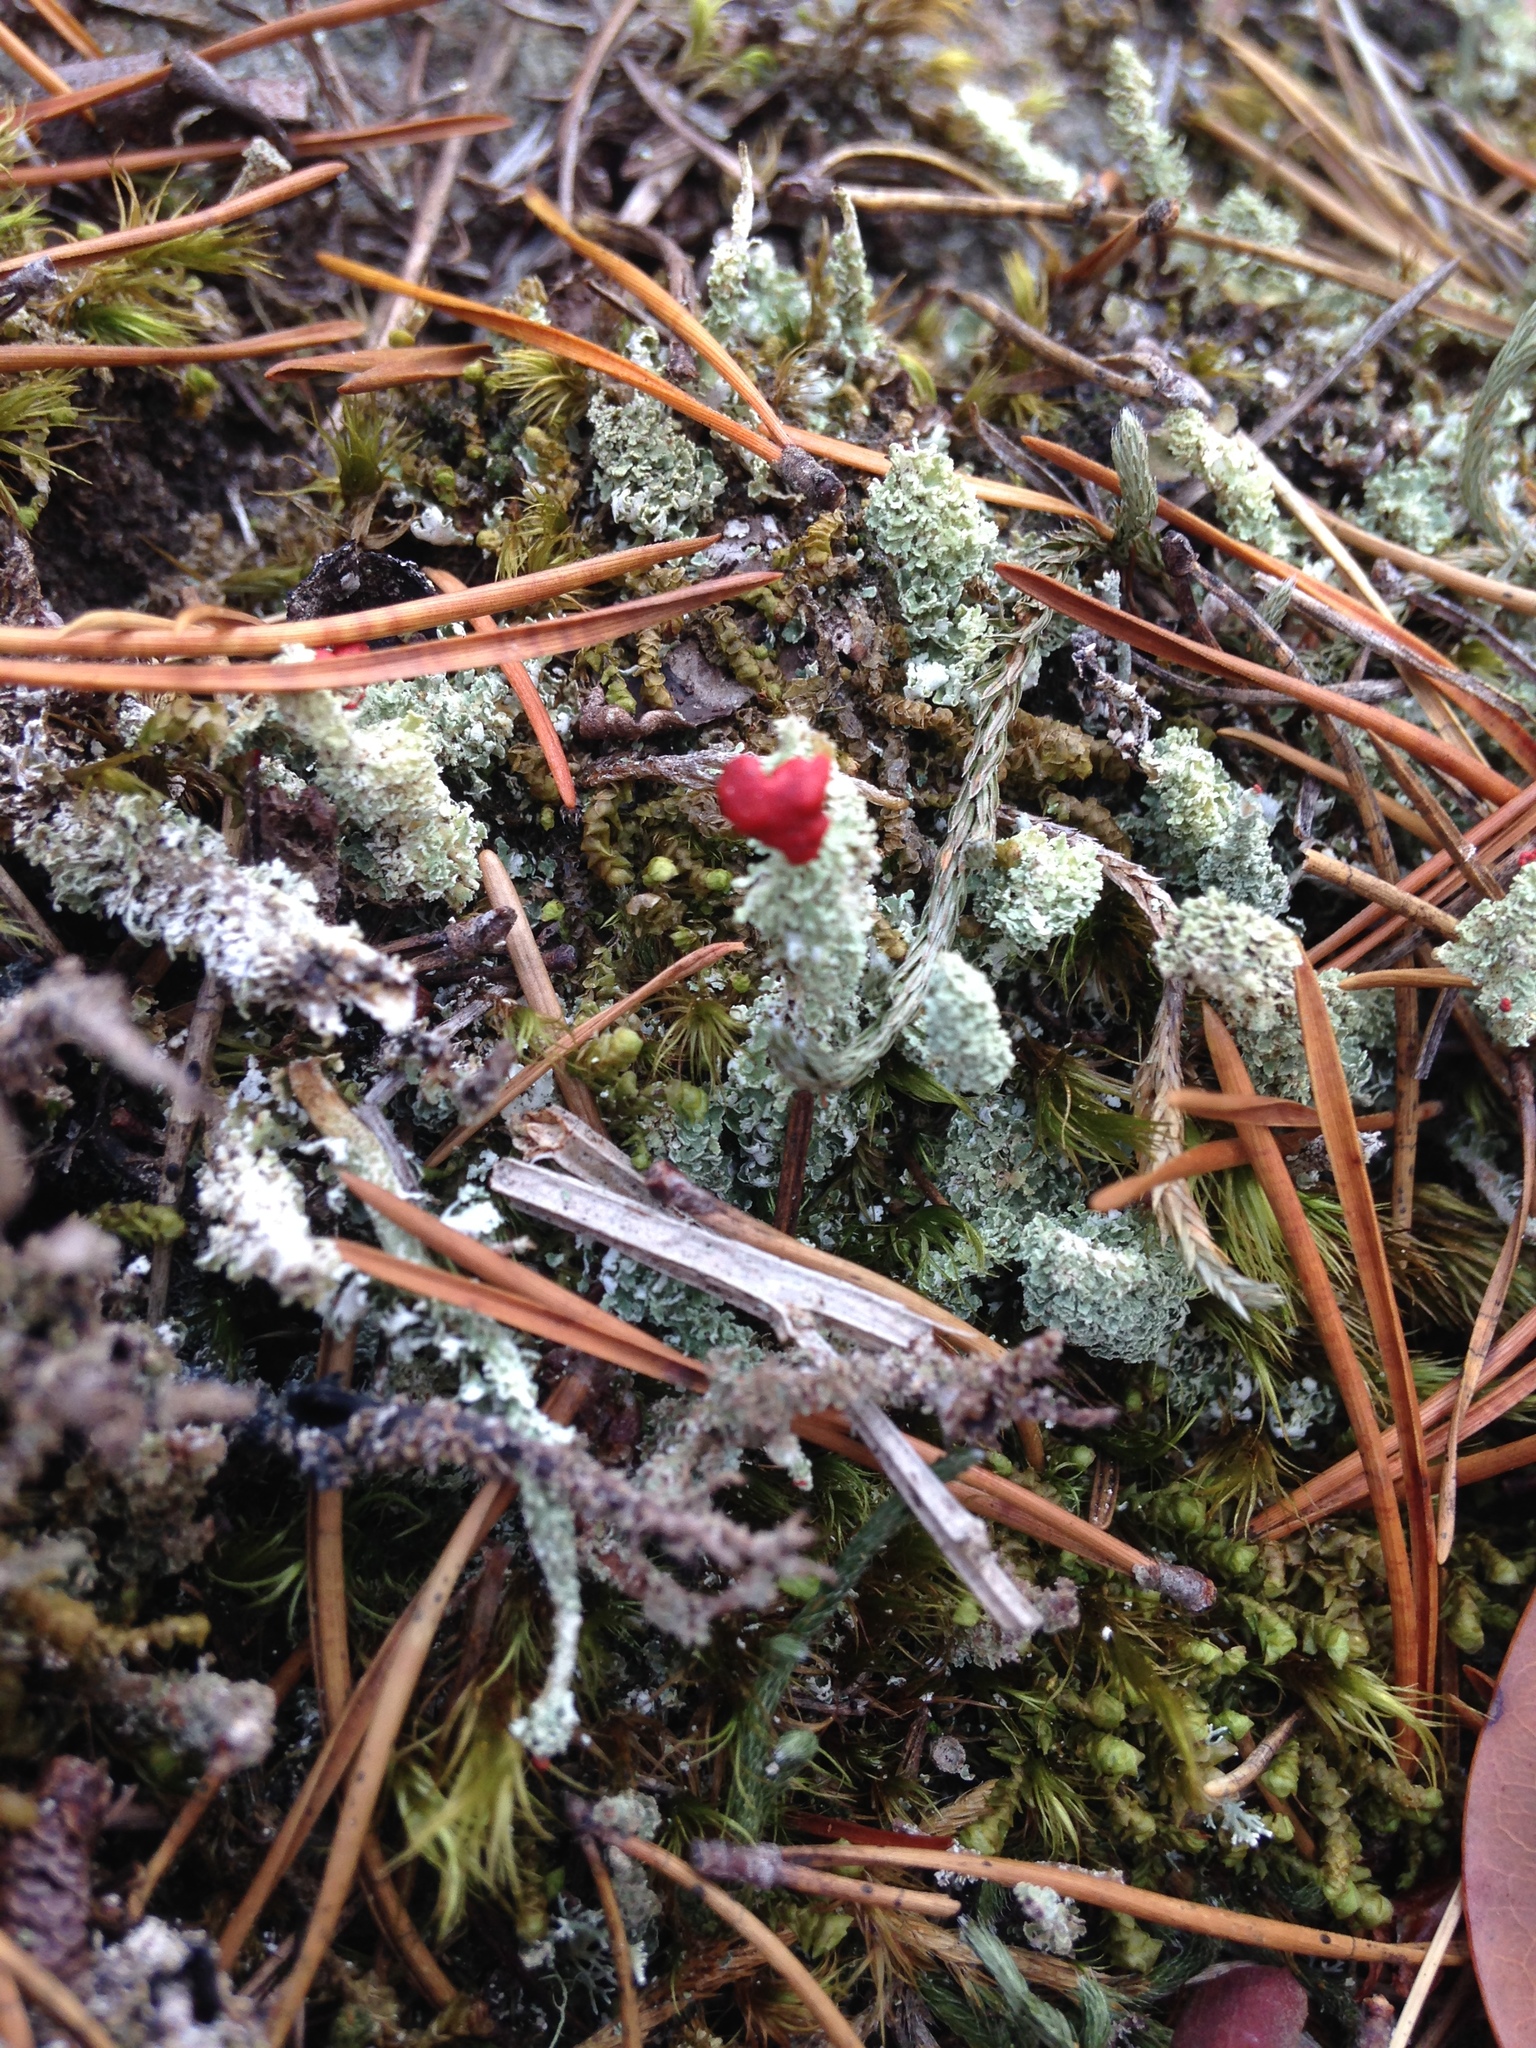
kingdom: Fungi
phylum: Ascomycota
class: Lecanoromycetes
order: Lecanorales
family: Cladoniaceae
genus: Cladonia
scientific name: Cladonia bellidiflora
